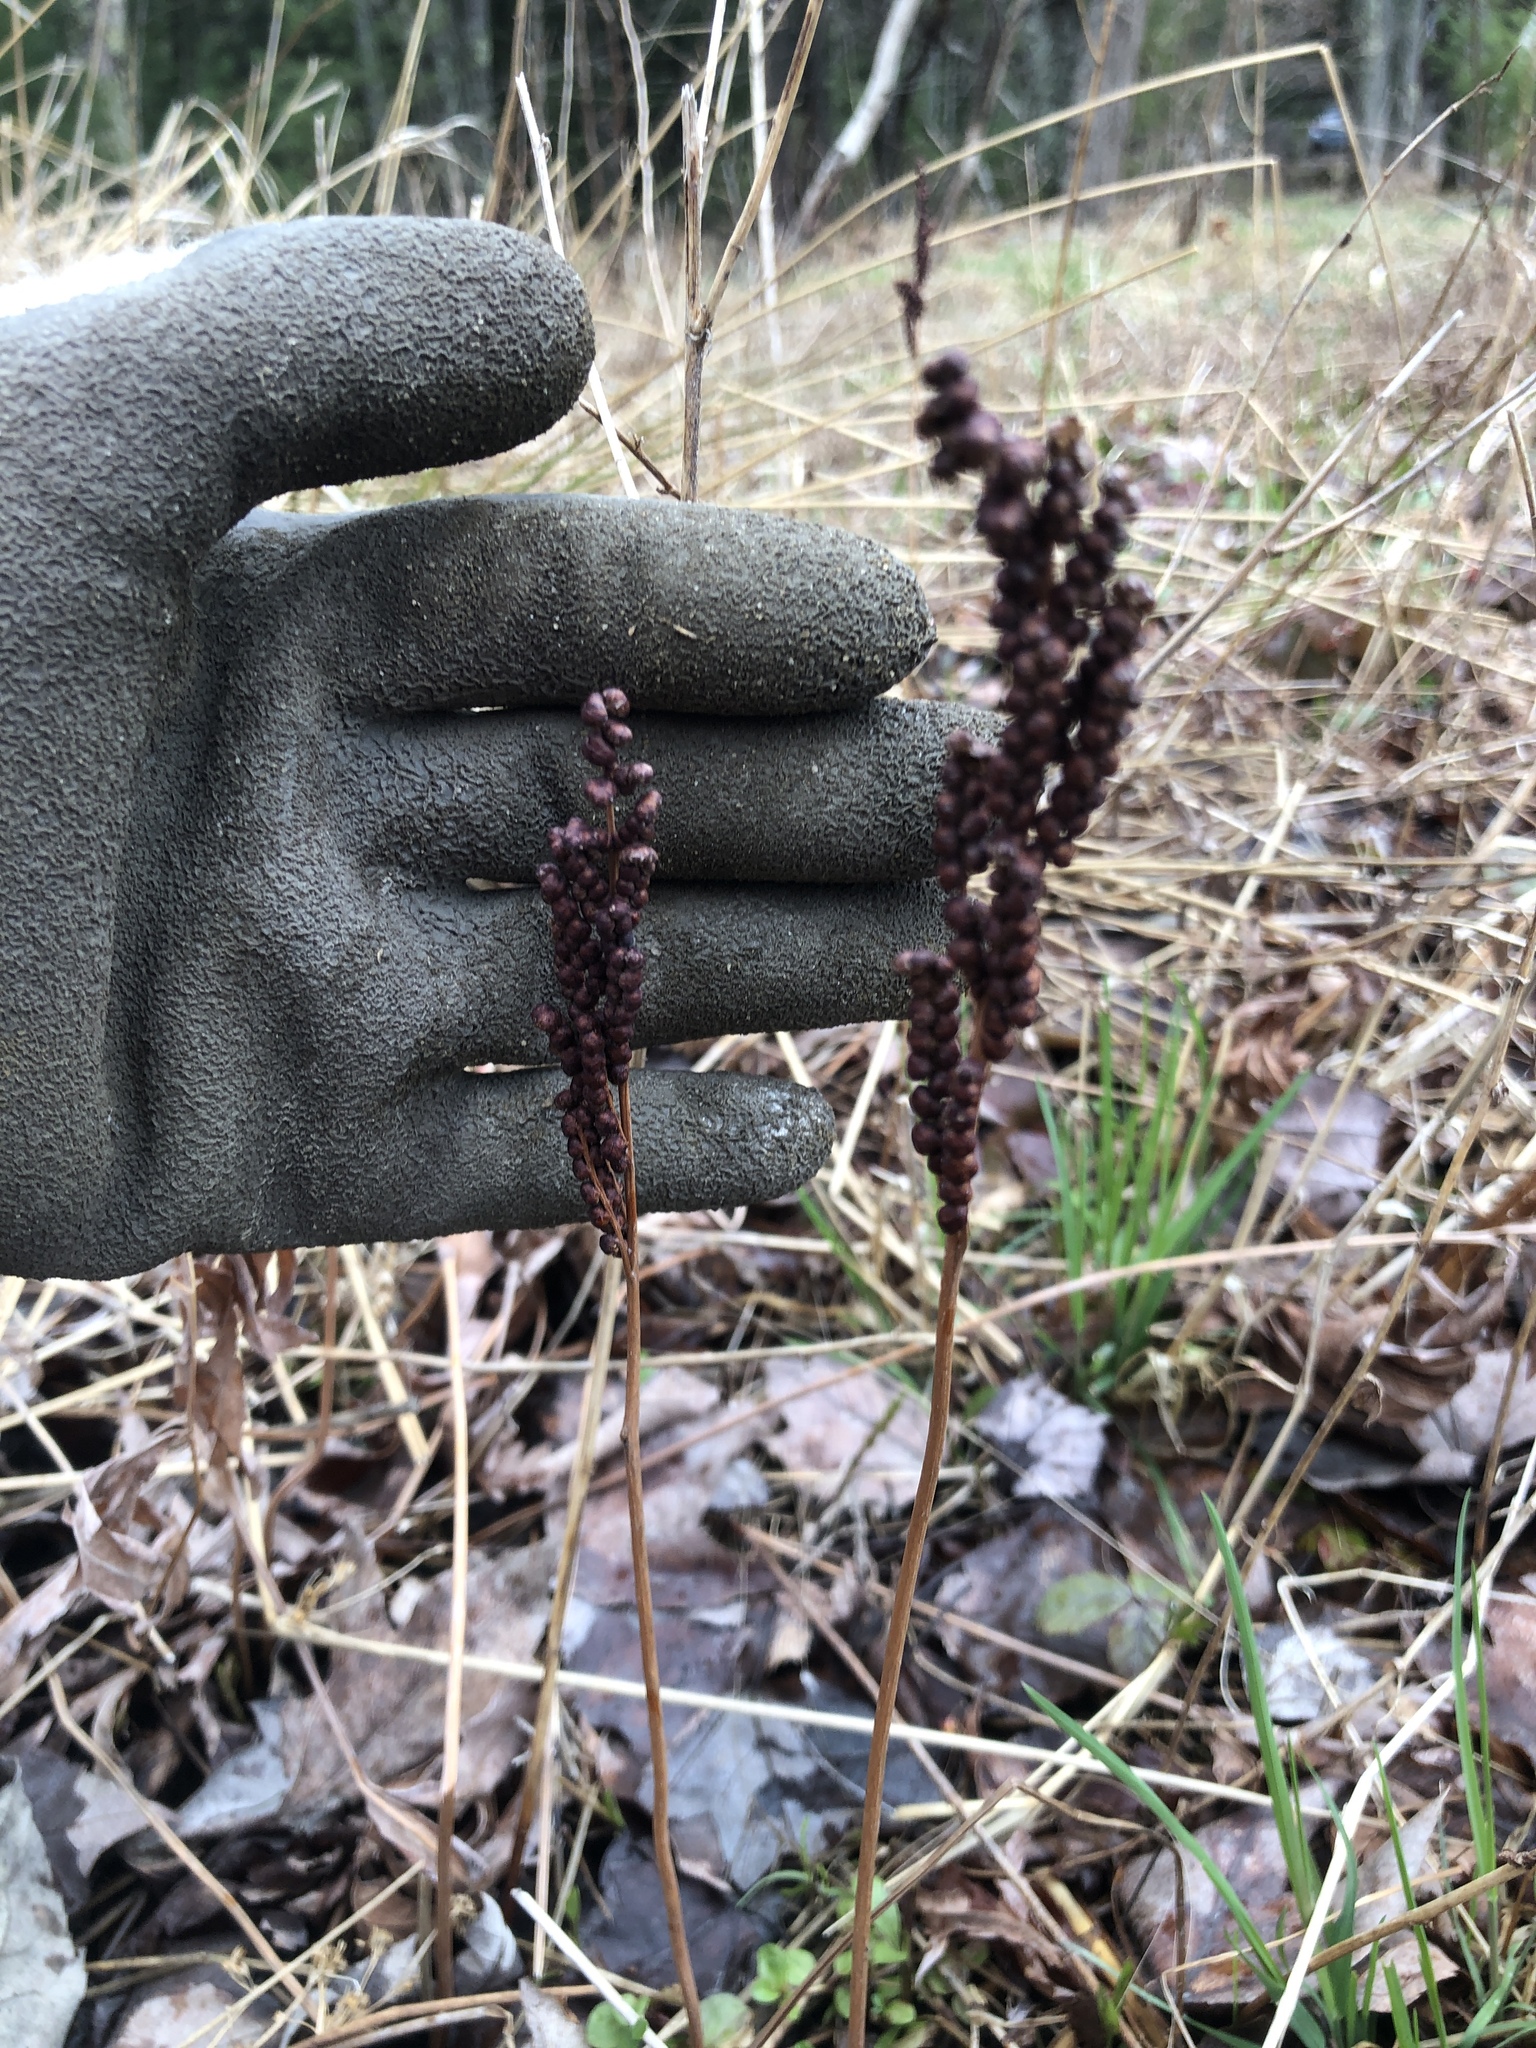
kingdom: Plantae
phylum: Tracheophyta
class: Polypodiopsida
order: Polypodiales
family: Onocleaceae
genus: Onoclea
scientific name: Onoclea sensibilis
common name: Sensitive fern
